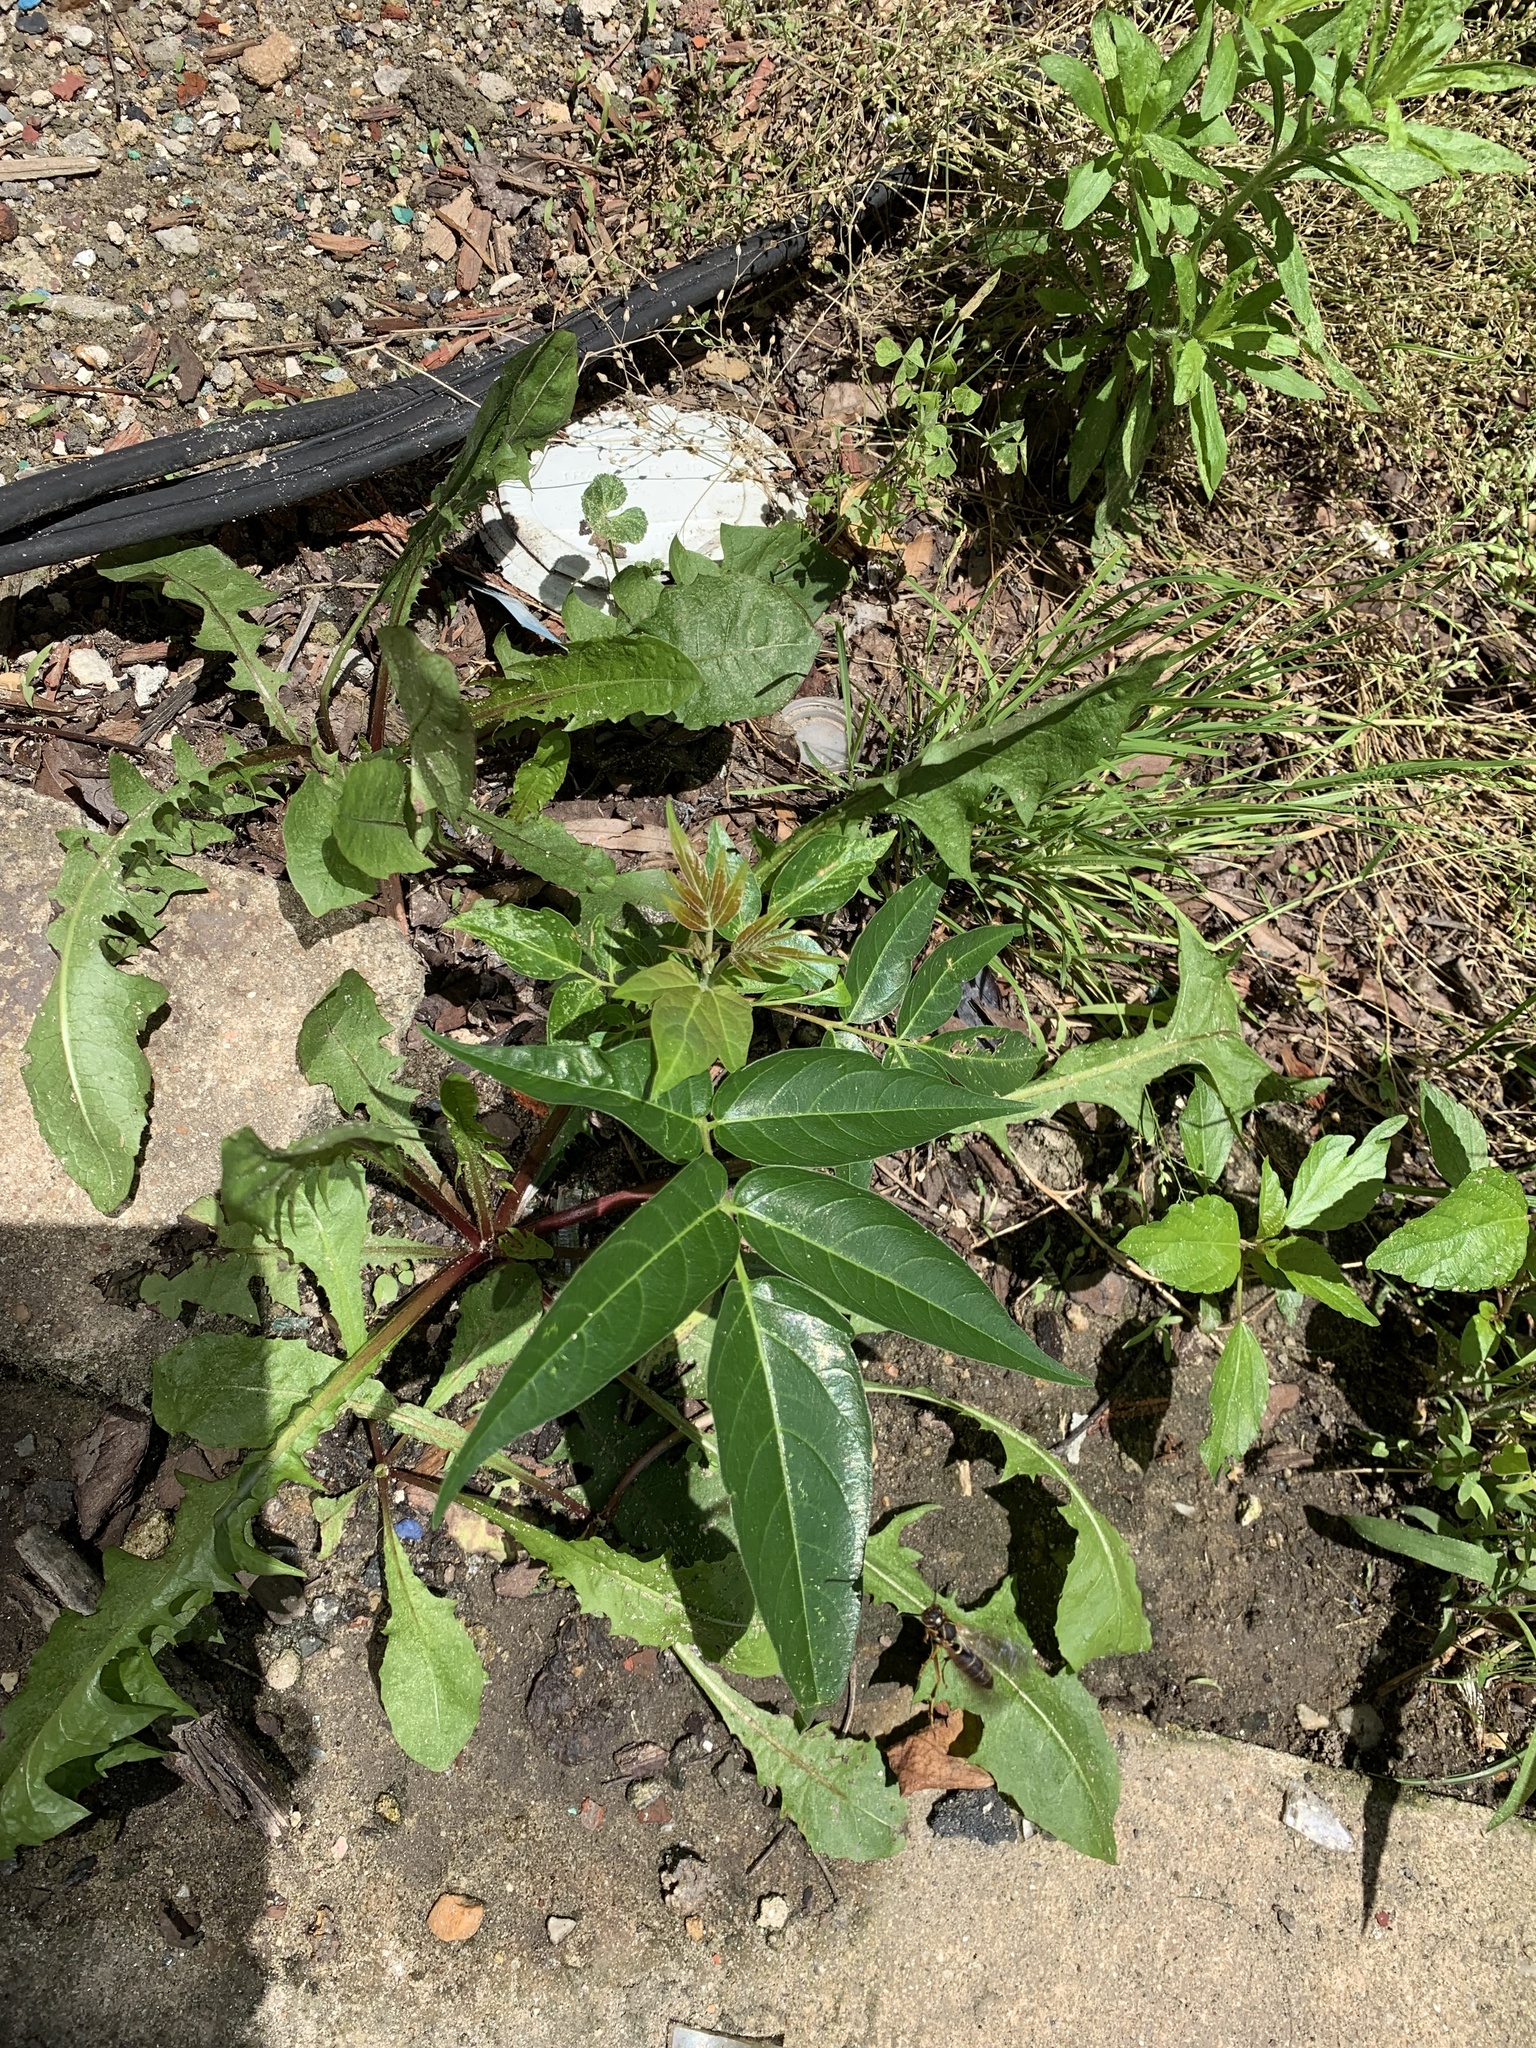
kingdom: Plantae
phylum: Tracheophyta
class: Magnoliopsida
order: Sapindales
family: Simaroubaceae
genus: Ailanthus
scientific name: Ailanthus altissima
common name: Tree-of-heaven
